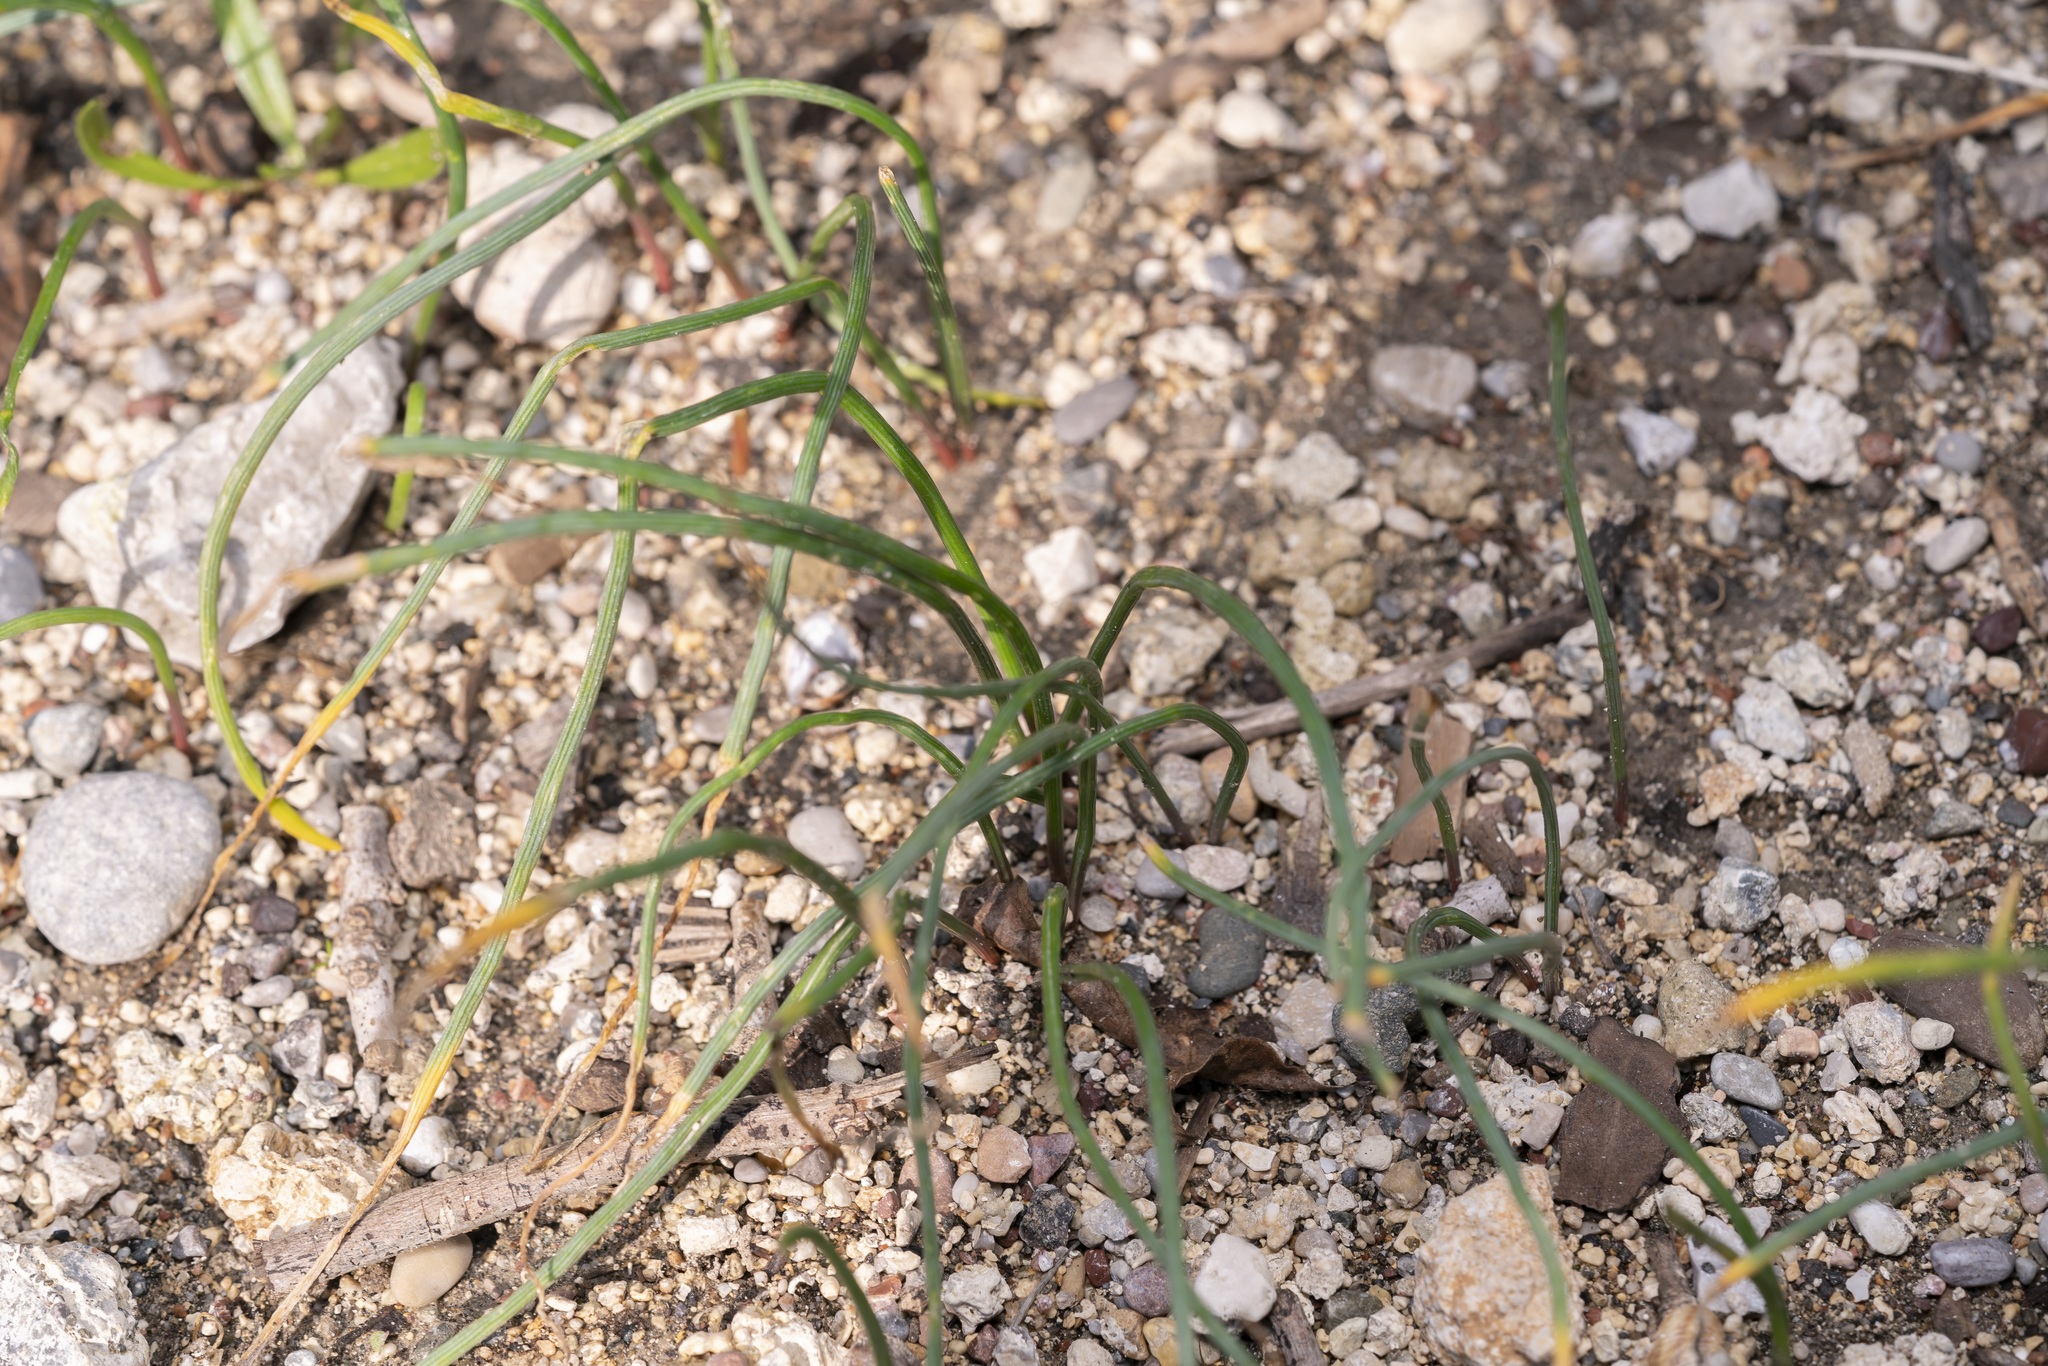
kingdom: Plantae
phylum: Tracheophyta
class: Liliopsida
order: Asparagales
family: Iridaceae
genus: Romulea
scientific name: Romulea
